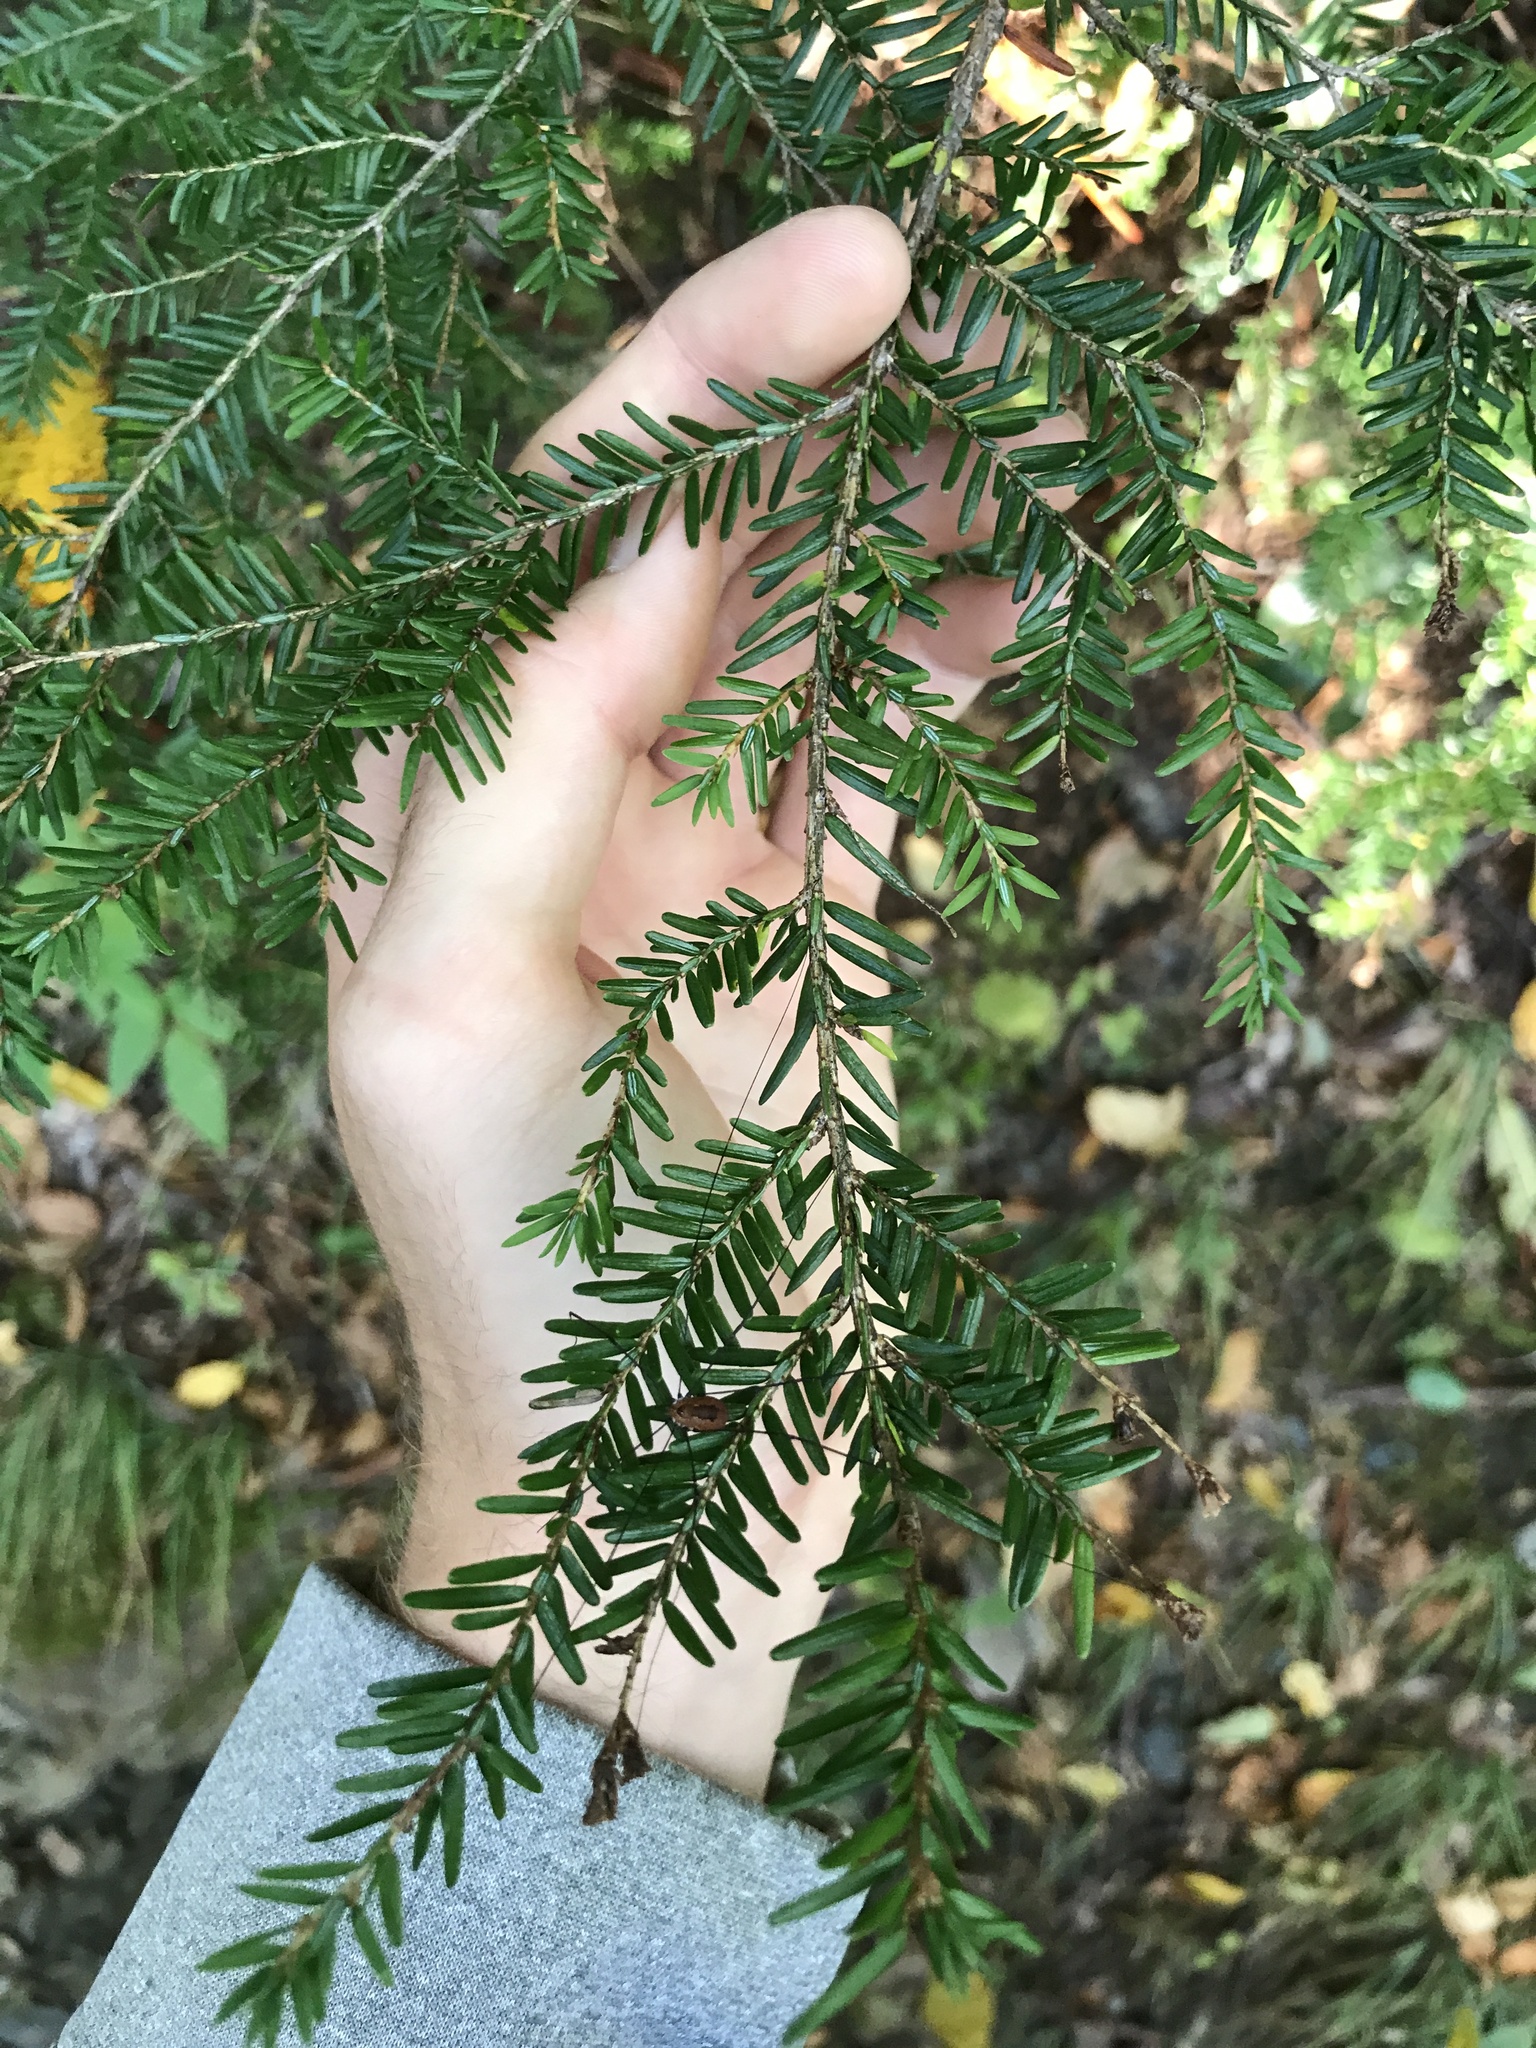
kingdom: Plantae
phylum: Tracheophyta
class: Pinopsida
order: Pinales
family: Pinaceae
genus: Tsuga
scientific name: Tsuga canadensis
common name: Eastern hemlock
